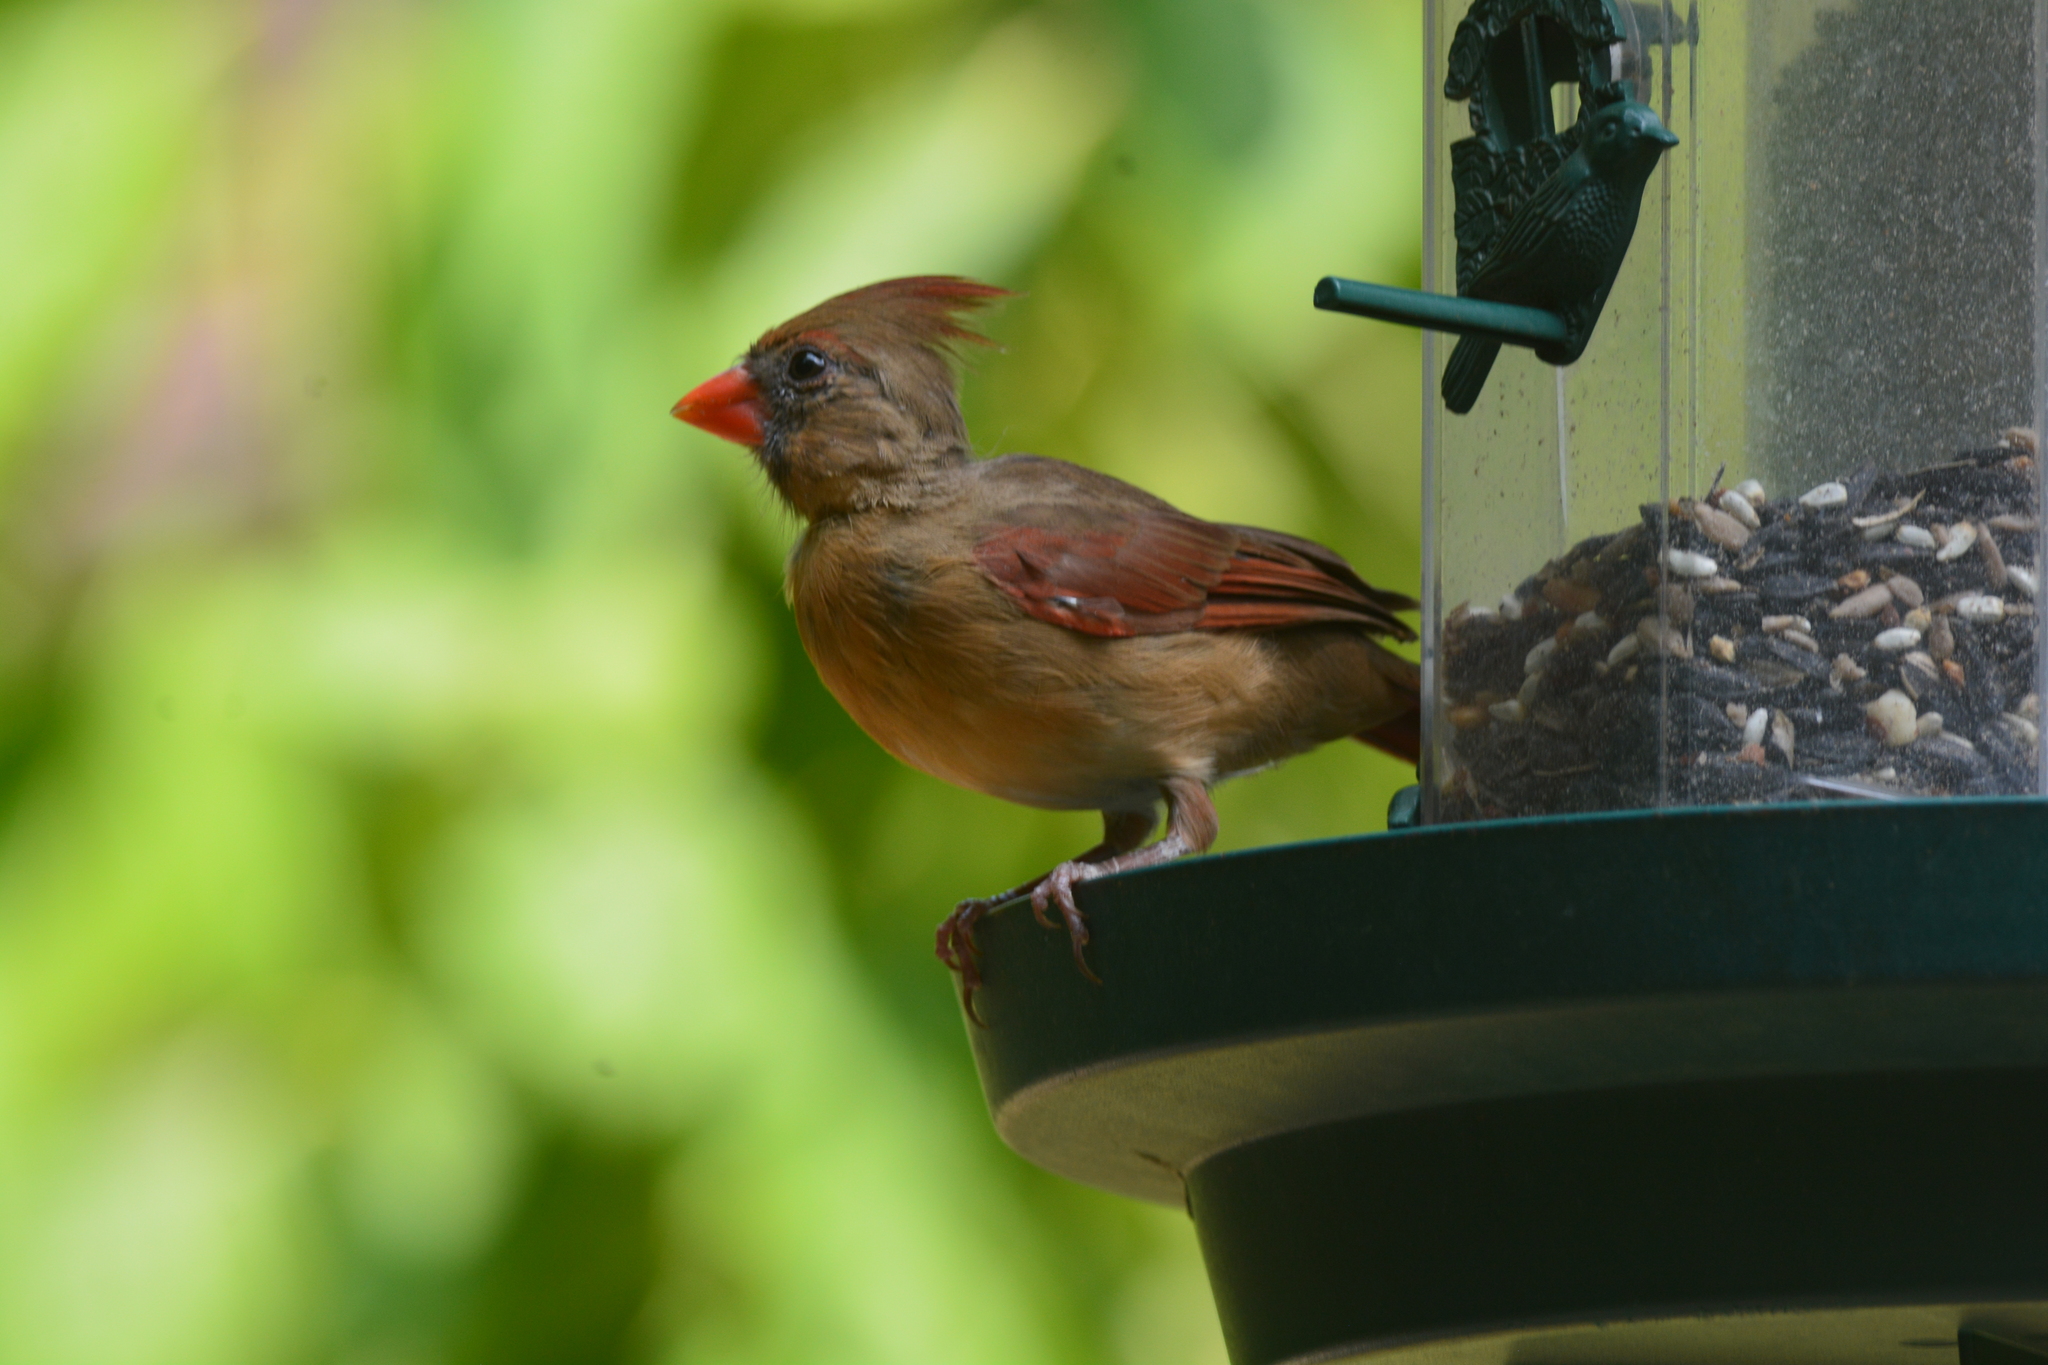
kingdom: Animalia
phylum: Chordata
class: Aves
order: Passeriformes
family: Cardinalidae
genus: Cardinalis
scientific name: Cardinalis cardinalis
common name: Northern cardinal
